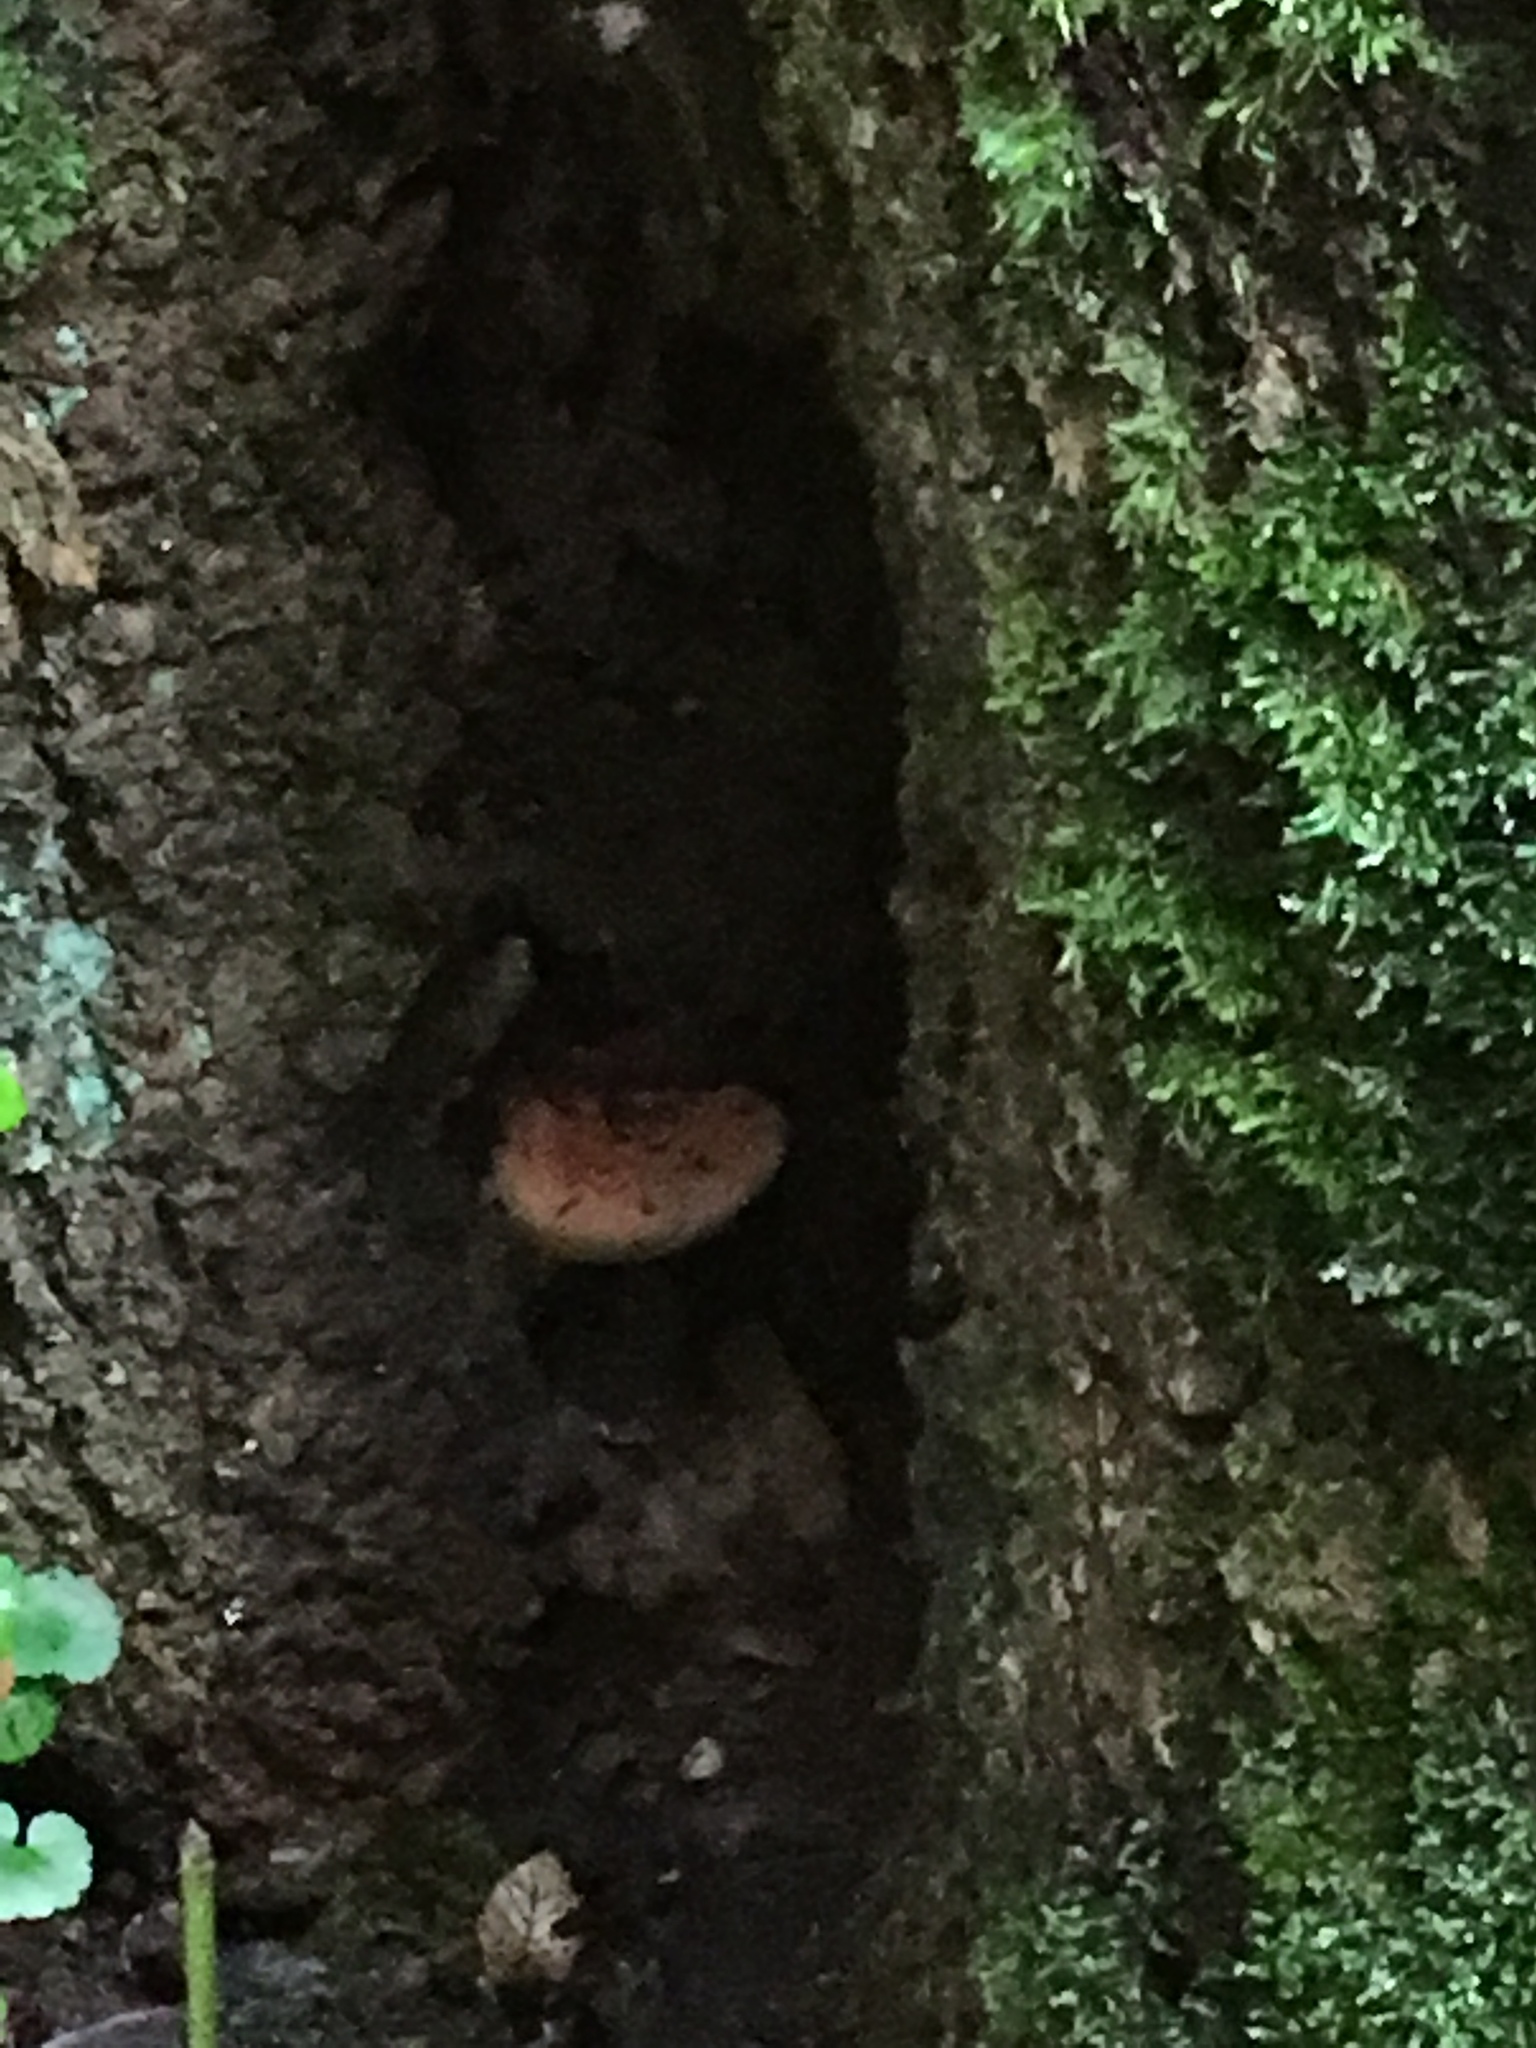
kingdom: Fungi
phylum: Basidiomycota
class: Agaricomycetes
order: Agaricales
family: Fistulinaceae
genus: Fistulina
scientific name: Fistulina hepatica
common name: Beef-steak fungus
